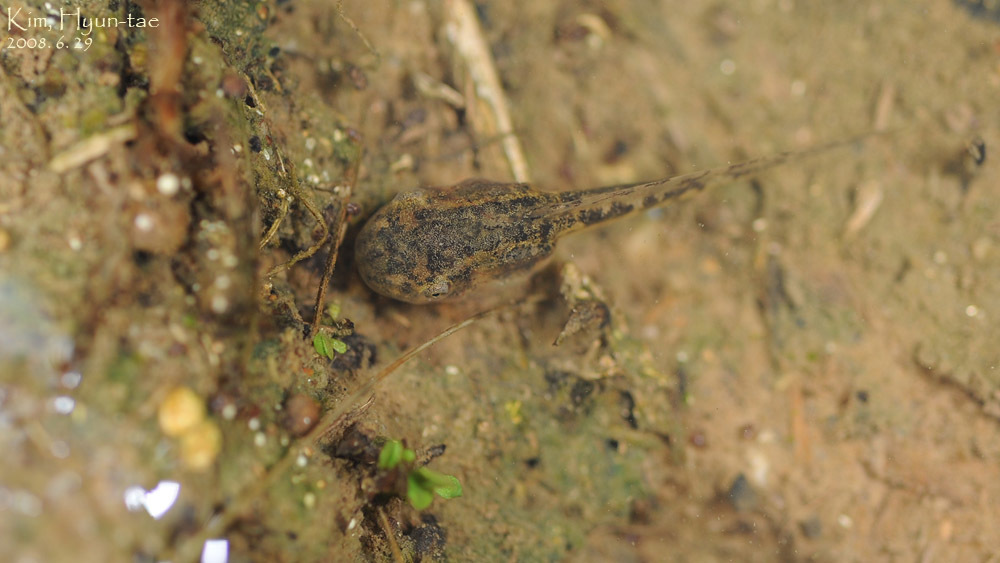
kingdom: Animalia
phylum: Chordata
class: Amphibia
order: Anura
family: Hylidae
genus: Dryophytes
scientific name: Dryophytes japonicus
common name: Japanese treefrog
